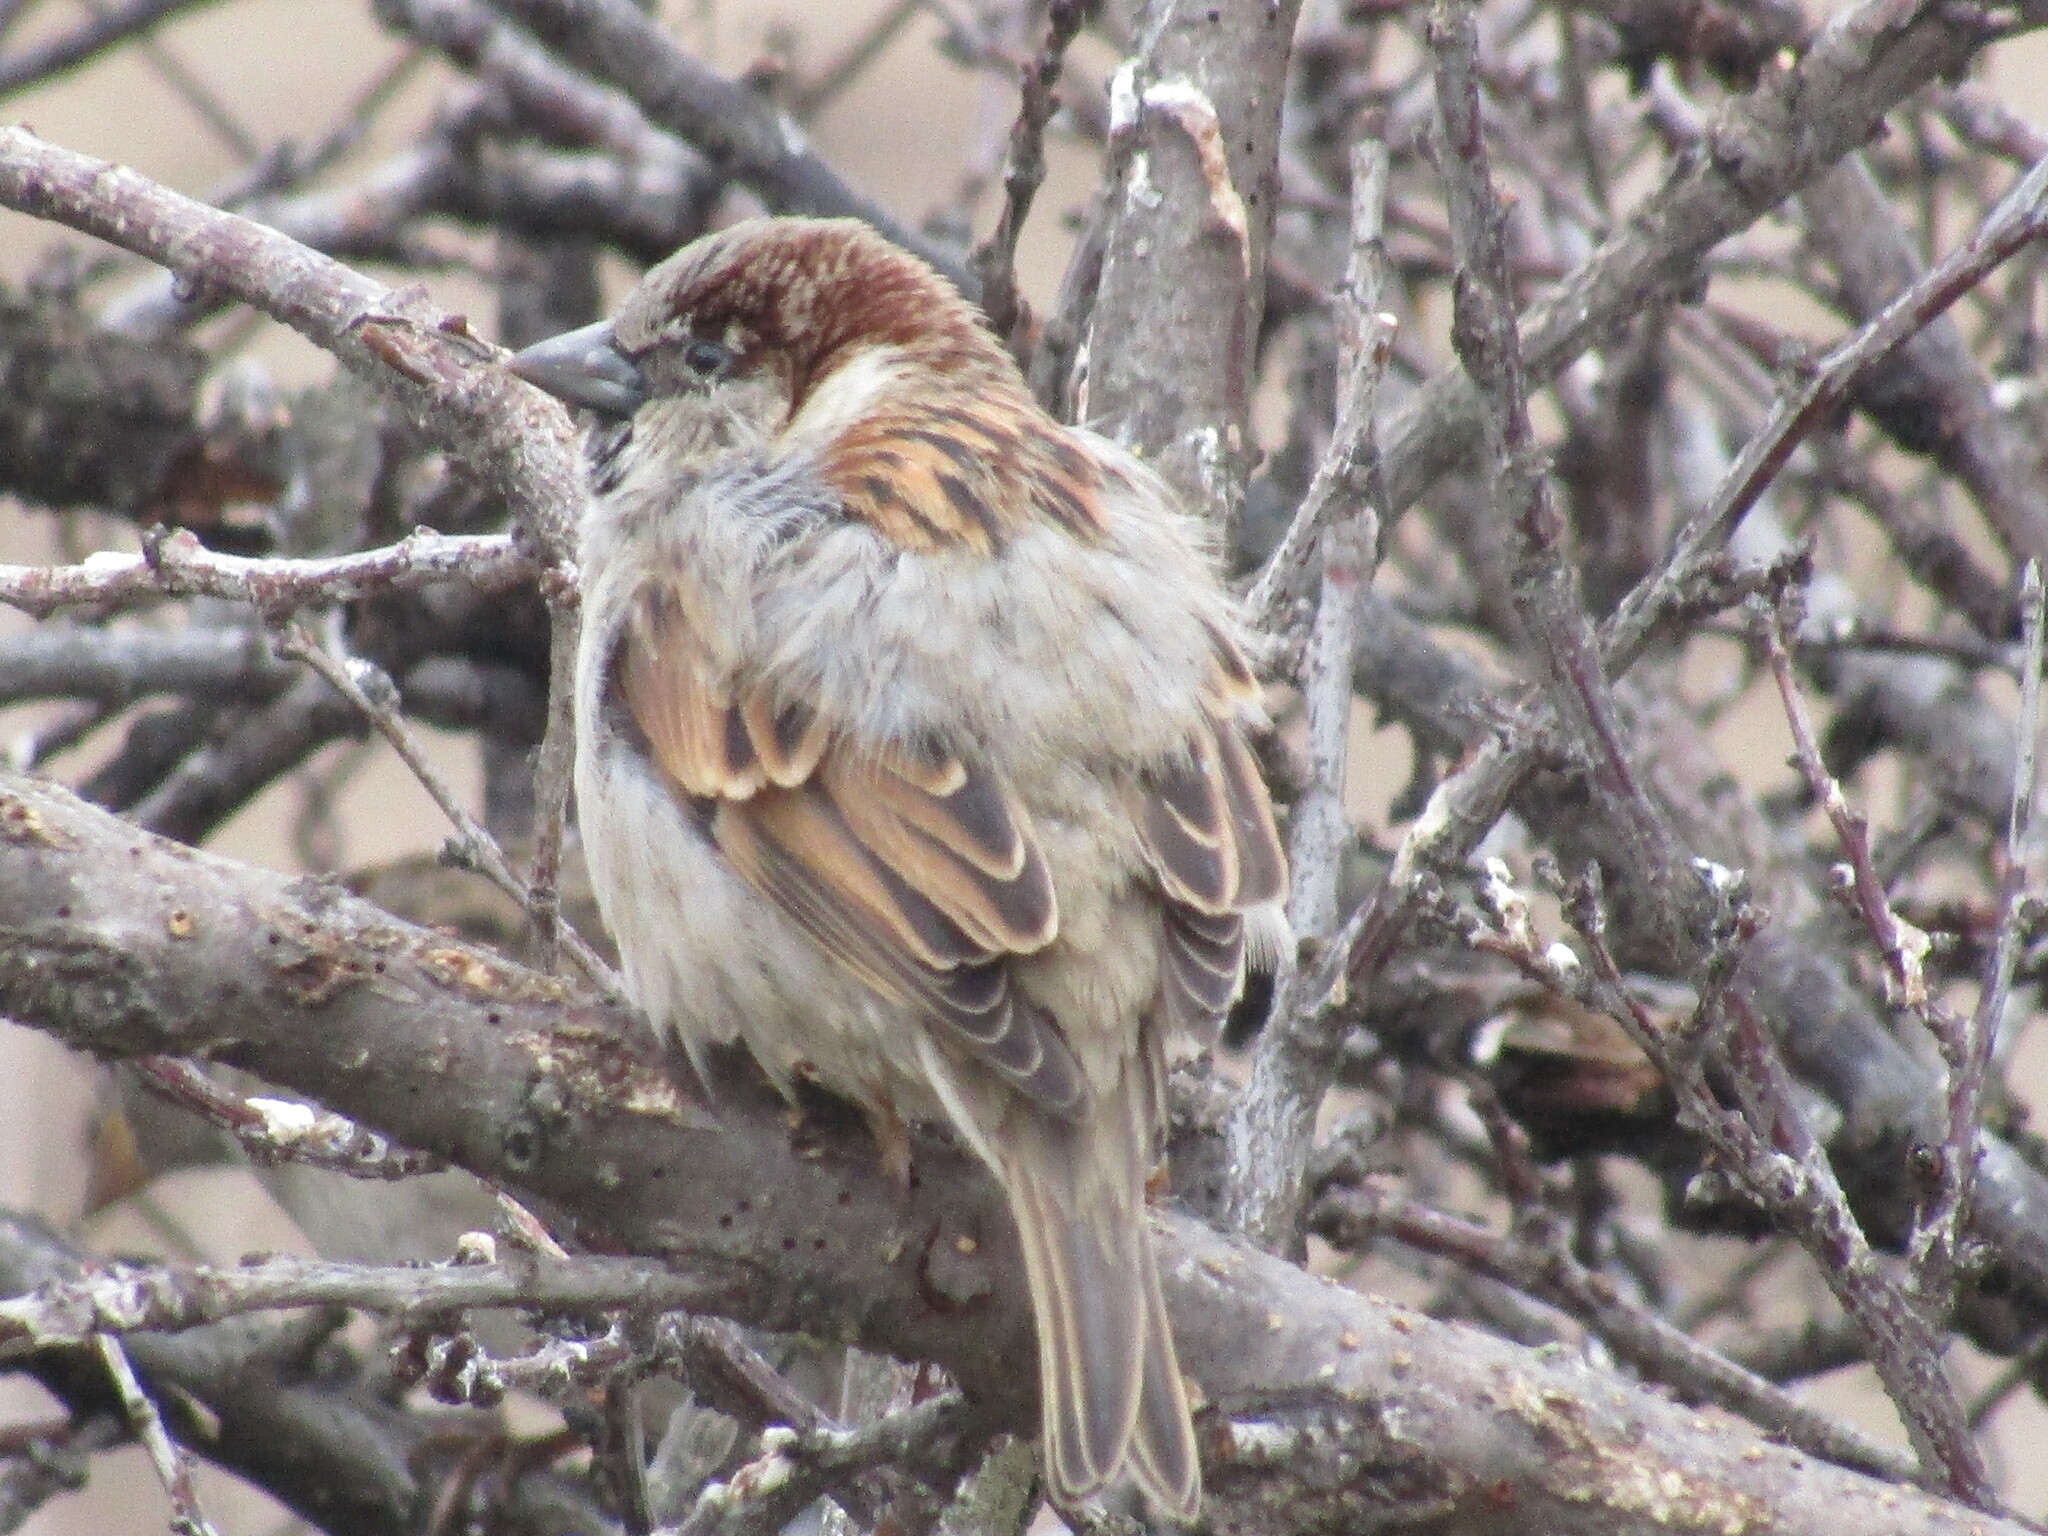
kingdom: Animalia
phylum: Chordata
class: Aves
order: Passeriformes
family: Passeridae
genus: Passer
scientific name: Passer domesticus
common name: House sparrow
